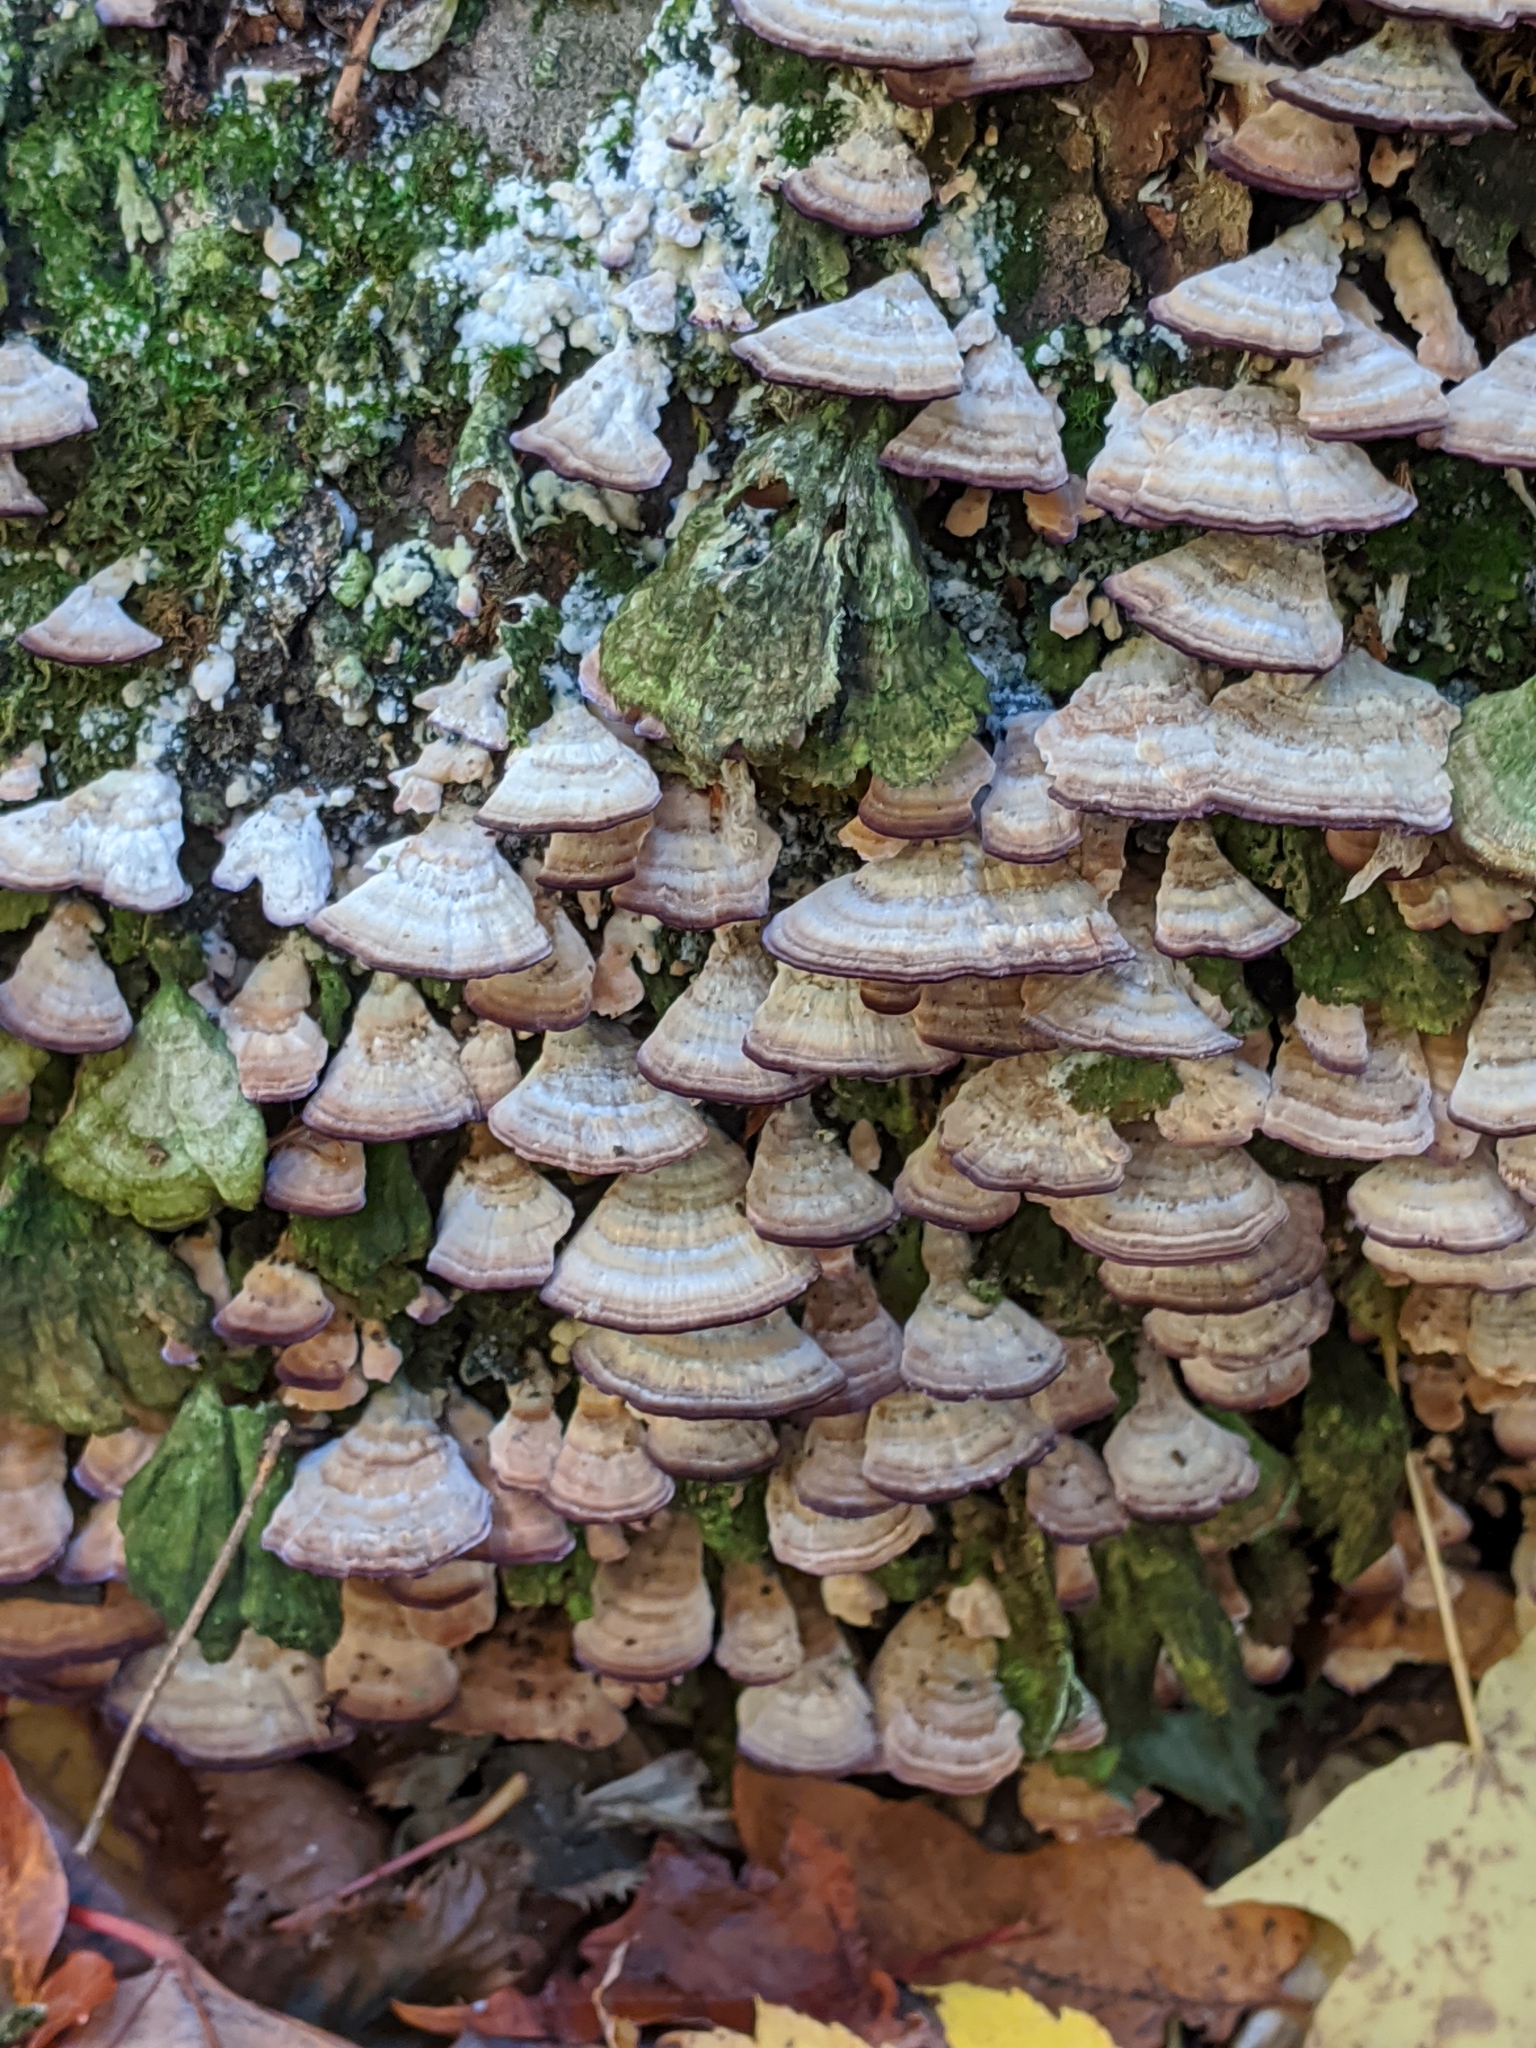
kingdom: Fungi
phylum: Basidiomycota
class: Agaricomycetes
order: Hymenochaetales
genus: Trichaptum
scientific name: Trichaptum biforme
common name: Violet-toothed polypore
